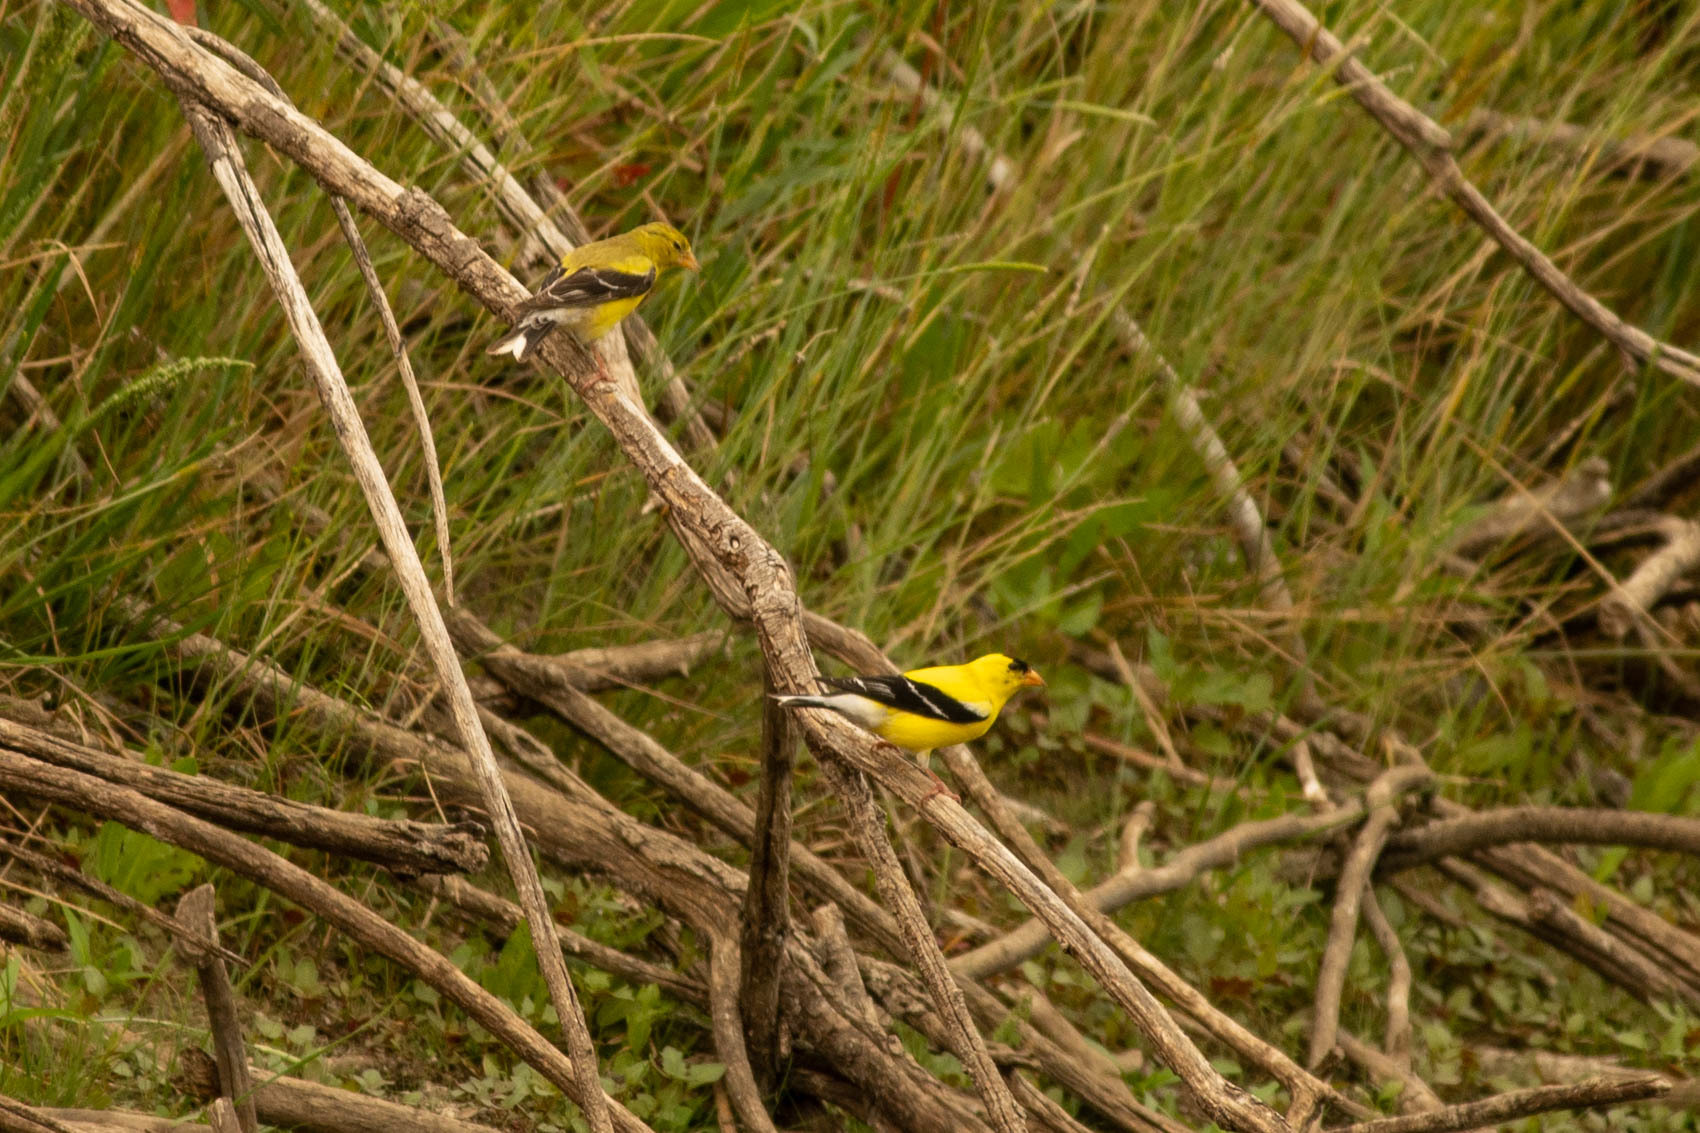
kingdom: Animalia
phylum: Chordata
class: Aves
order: Passeriformes
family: Fringillidae
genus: Spinus
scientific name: Spinus tristis
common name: American goldfinch
